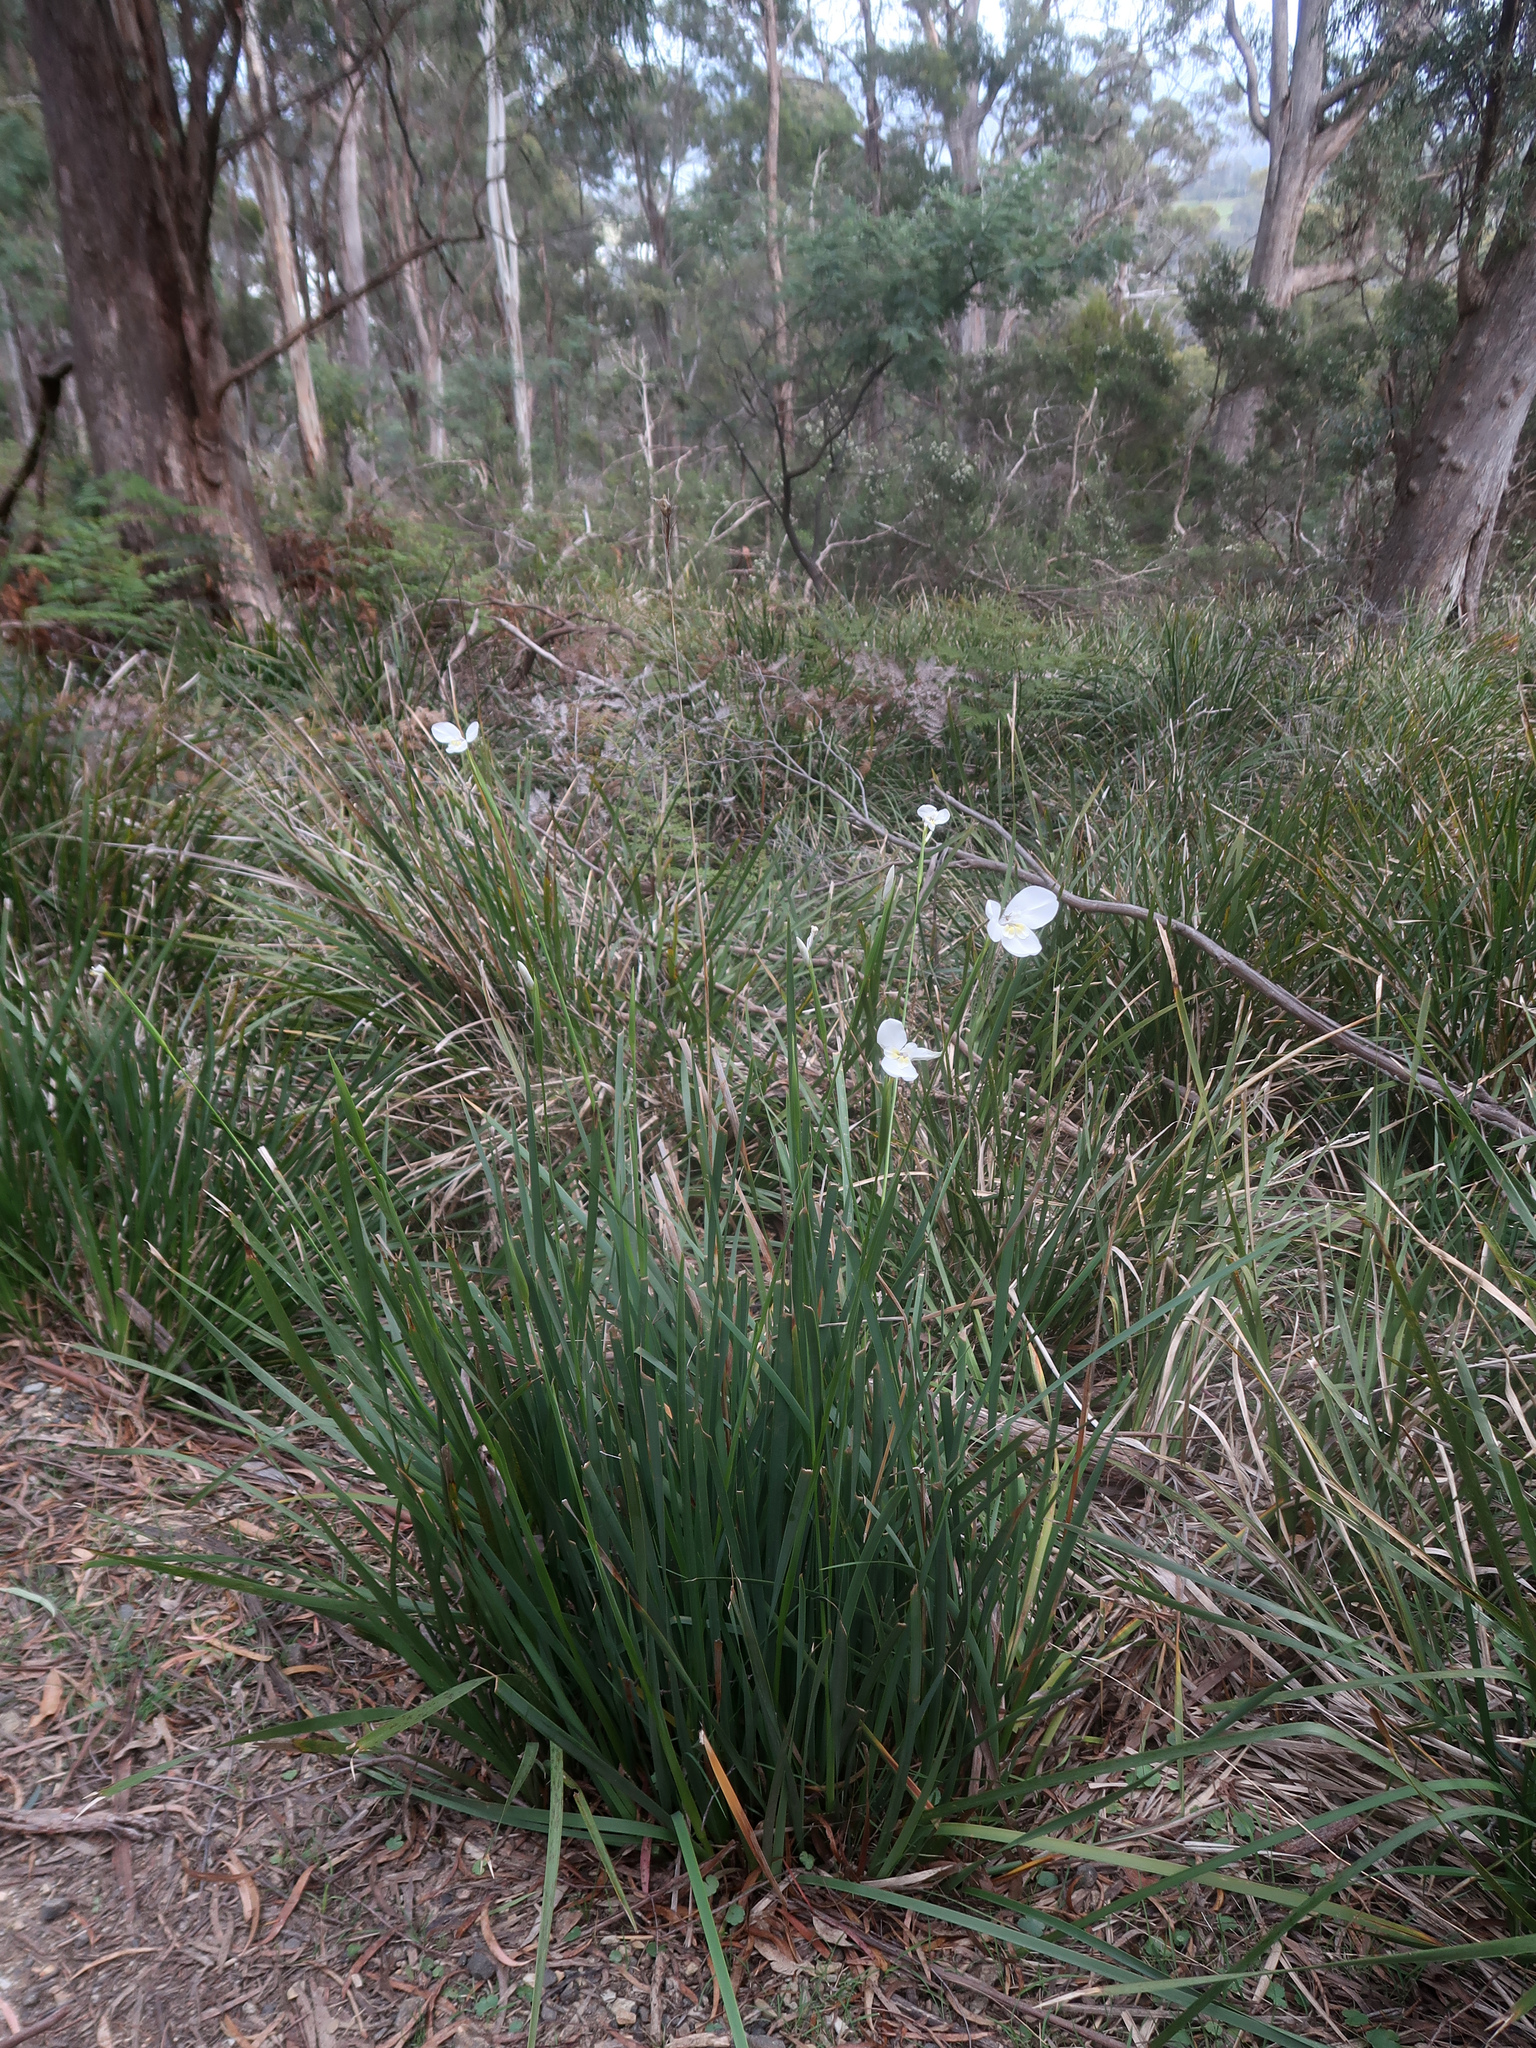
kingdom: Plantae
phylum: Tracheophyta
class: Liliopsida
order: Asparagales
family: Iridaceae
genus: Diplarrena
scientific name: Diplarrena moraea
